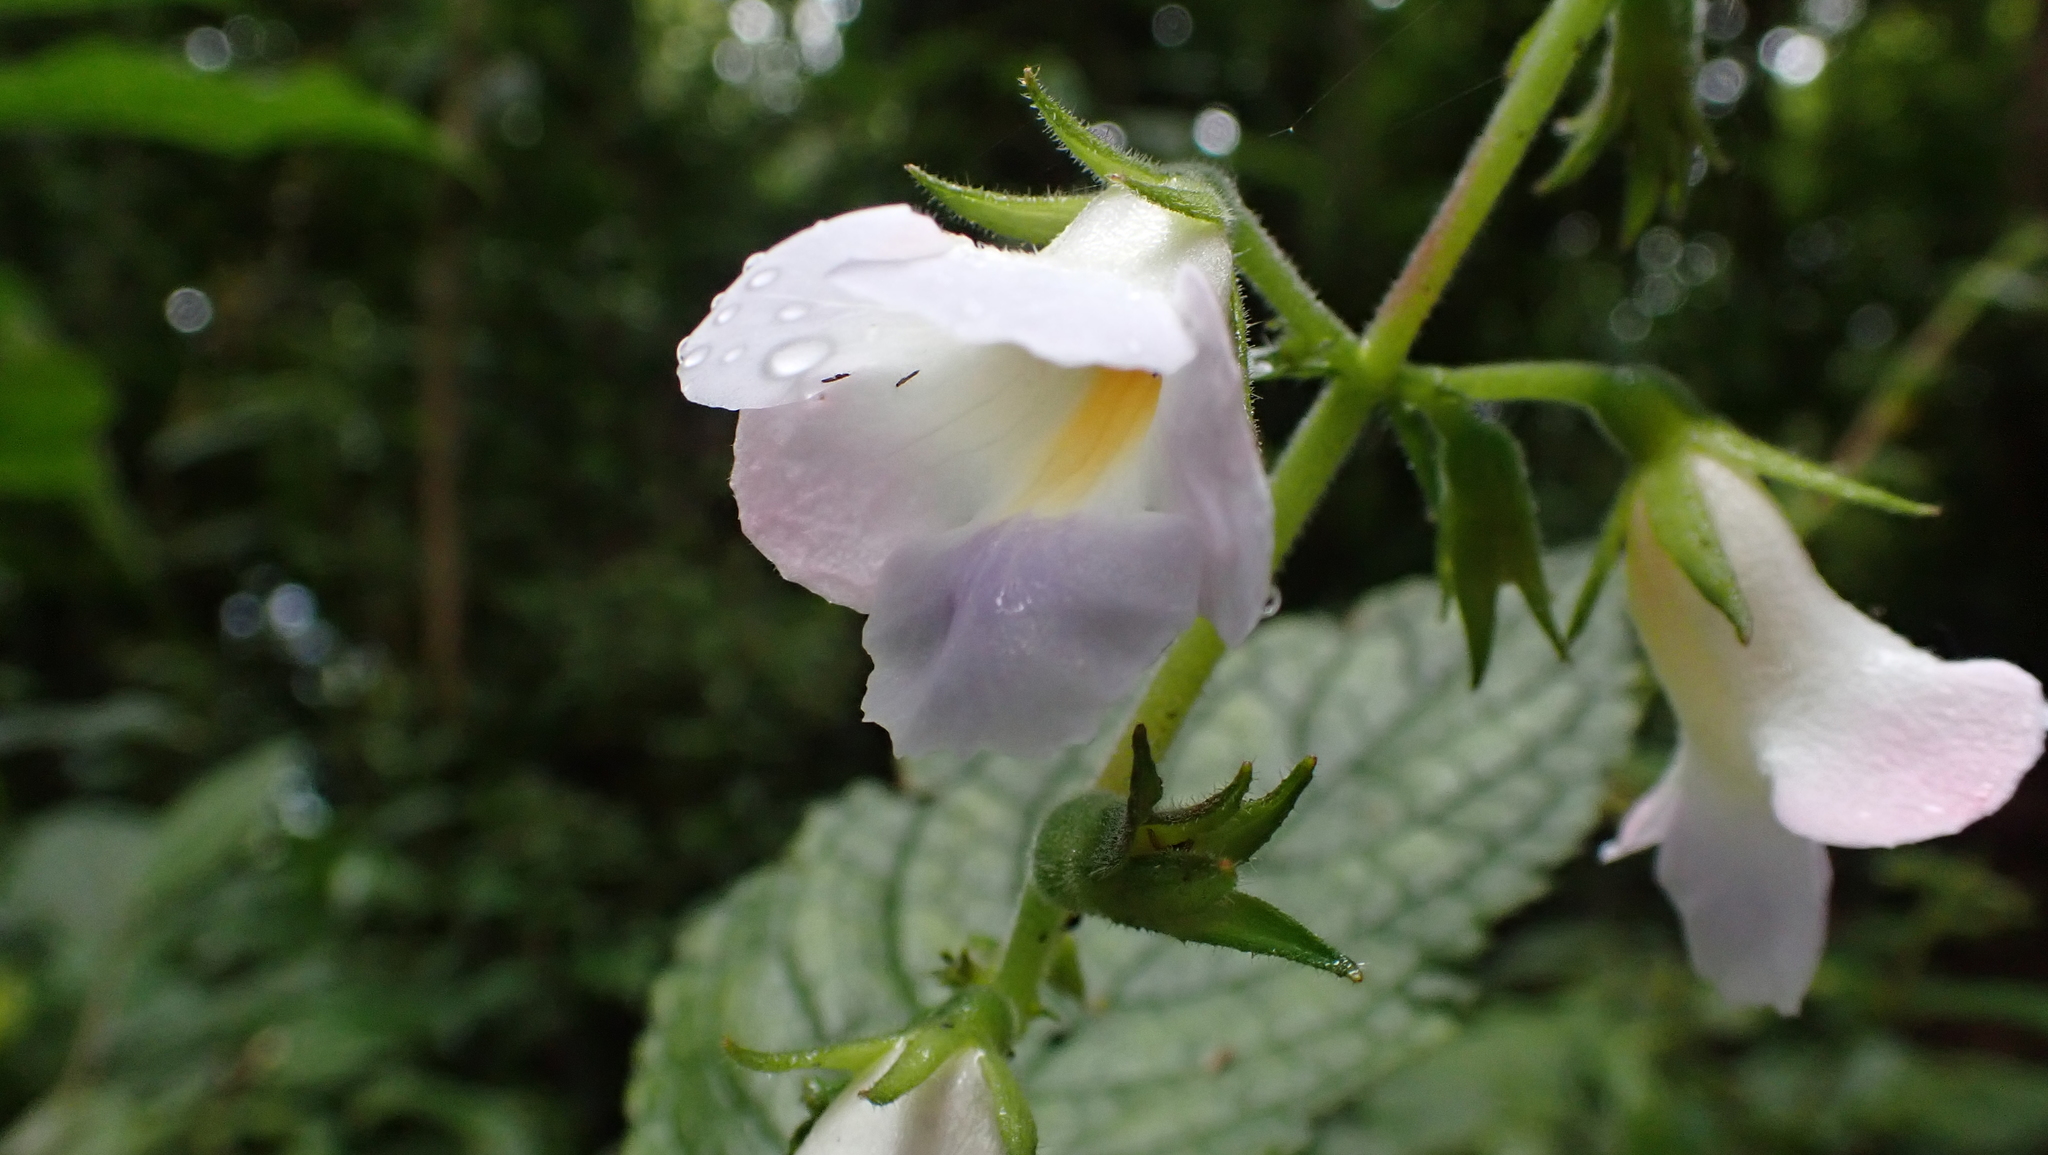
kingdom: Plantae
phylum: Tracheophyta
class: Magnoliopsida
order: Lamiales
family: Gesneriaceae
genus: Monopyle
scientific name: Monopyle puberula
